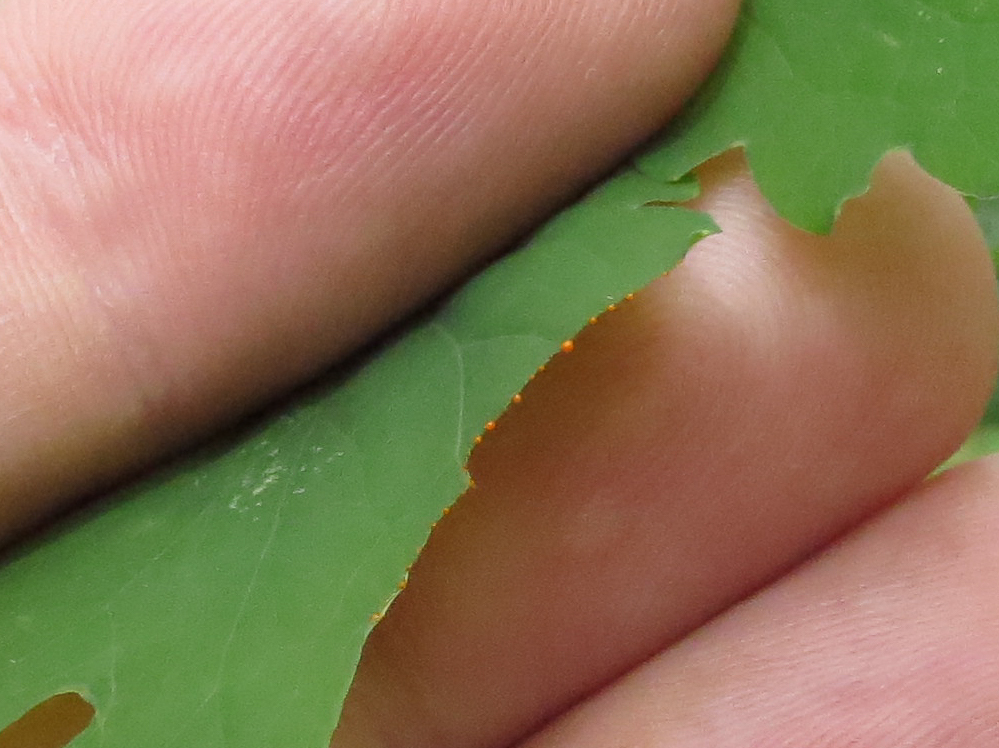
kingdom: Plantae
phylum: Tracheophyta
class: Magnoliopsida
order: Ranunculales
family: Papaveraceae
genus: Chelidonium
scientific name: Chelidonium majus
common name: Greater celandine
